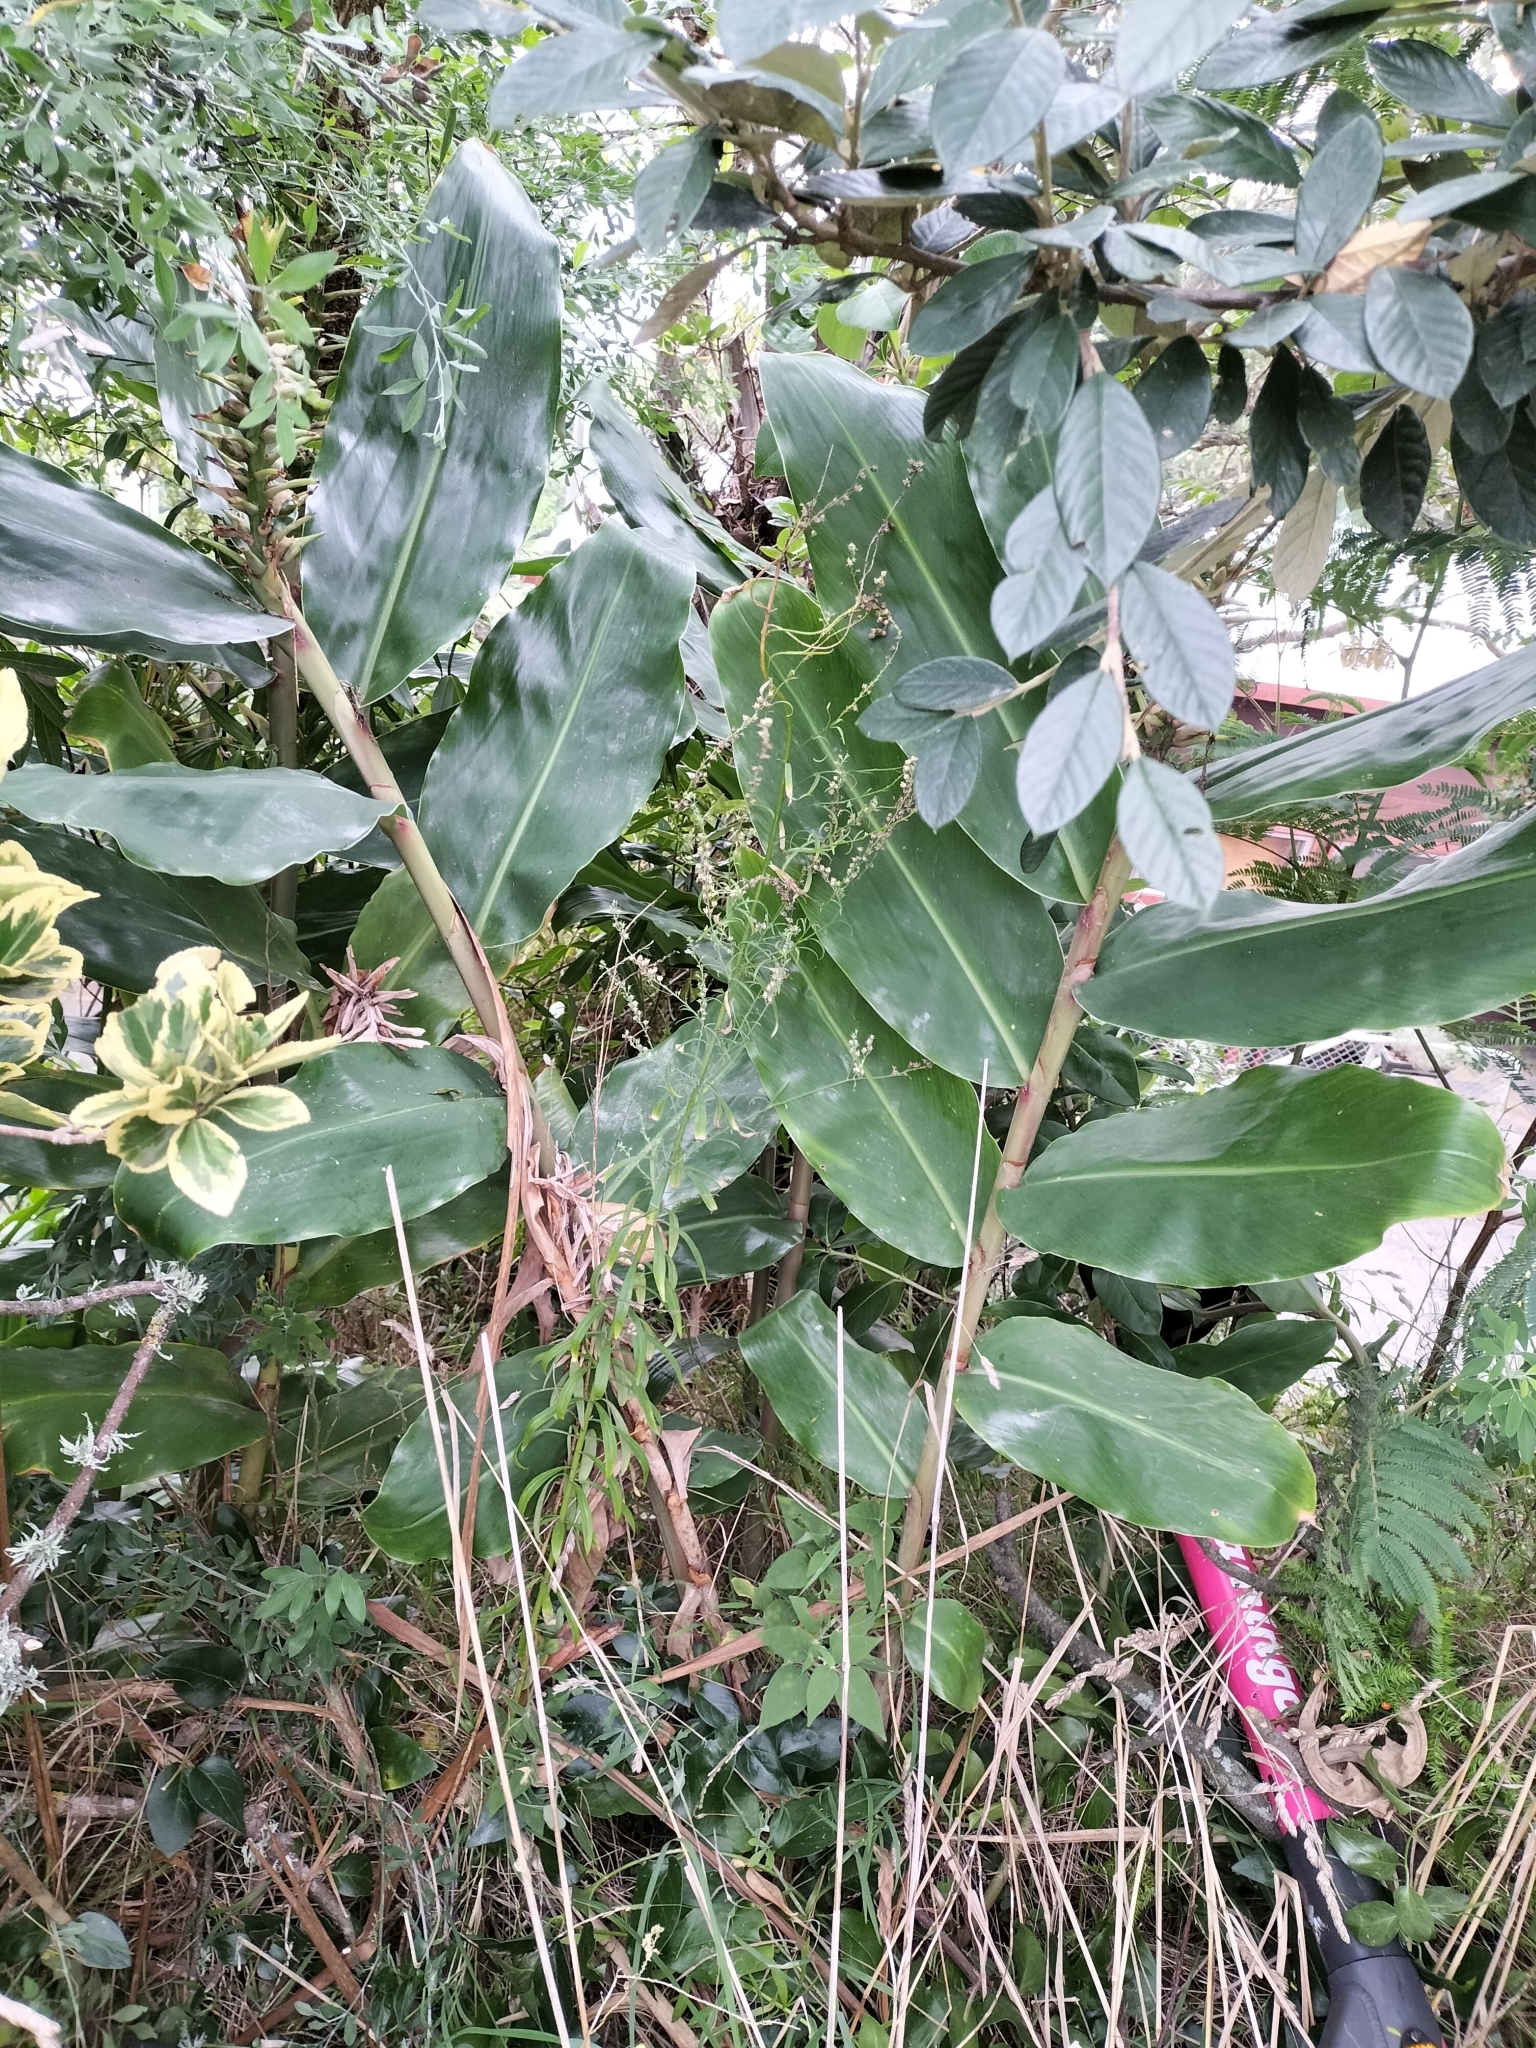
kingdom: Plantae
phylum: Tracheophyta
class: Liliopsida
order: Zingiberales
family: Zingiberaceae
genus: Hedychium
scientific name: Hedychium gardnerianum
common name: Himalayan ginger
